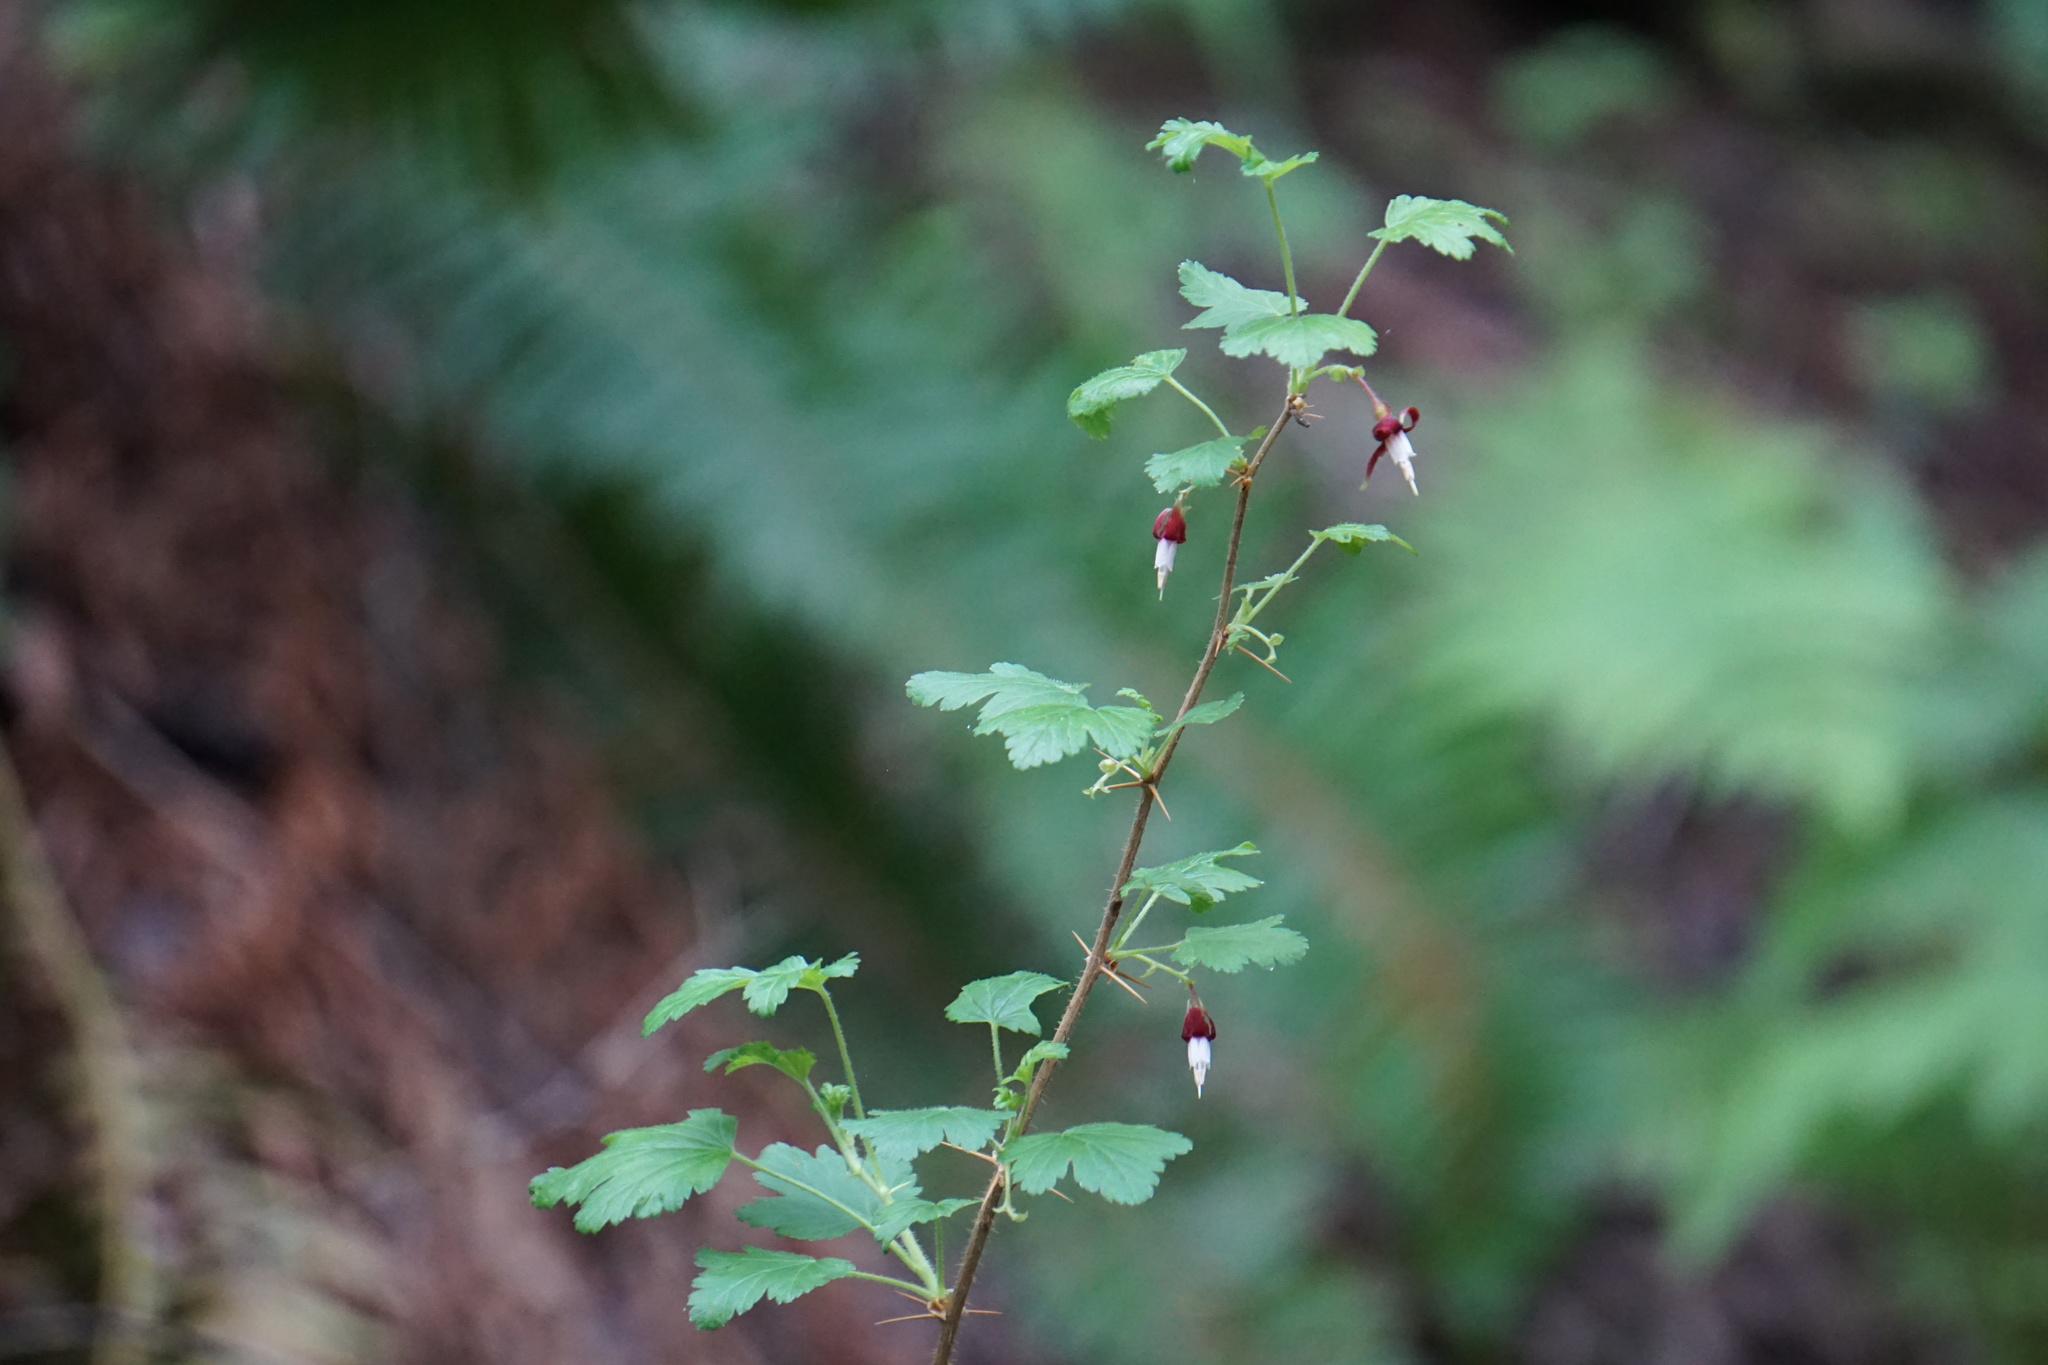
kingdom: Plantae
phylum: Tracheophyta
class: Magnoliopsida
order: Saxifragales
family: Grossulariaceae
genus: Ribes
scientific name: Ribes menziesii
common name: Canyon gooseberry
